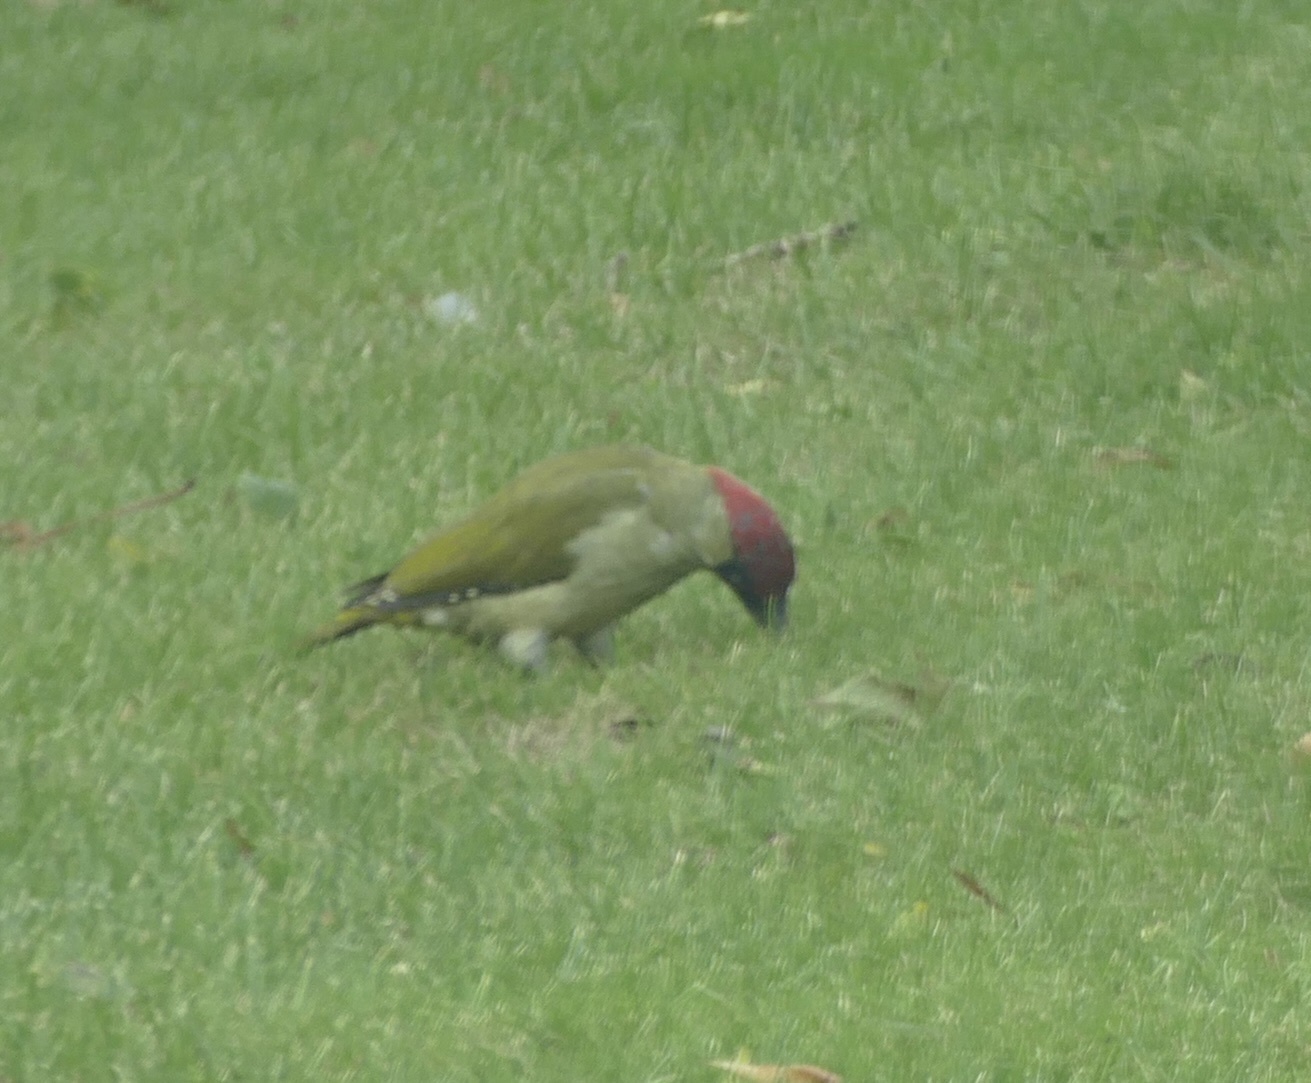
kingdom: Animalia
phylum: Chordata
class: Aves
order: Piciformes
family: Picidae
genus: Picus
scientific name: Picus viridis
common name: European green woodpecker
